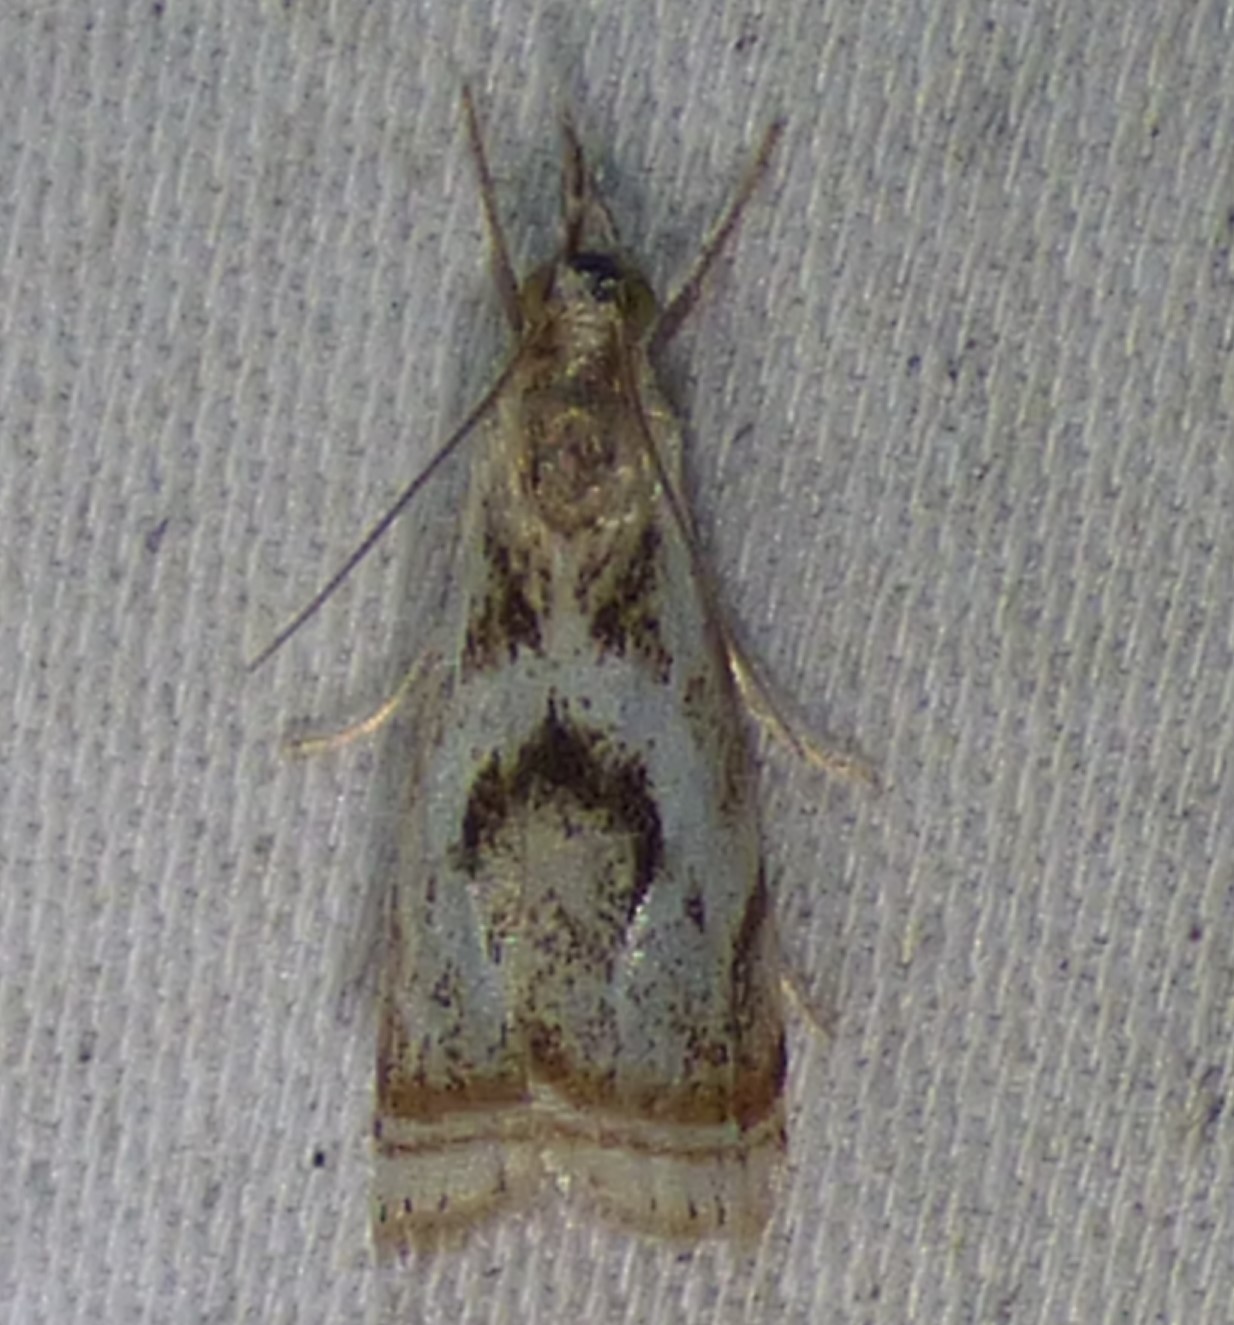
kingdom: Animalia
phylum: Arthropoda
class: Insecta
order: Lepidoptera
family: Crambidae
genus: Microcrambus
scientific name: Microcrambus elegans
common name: Elegant grass-veneer
